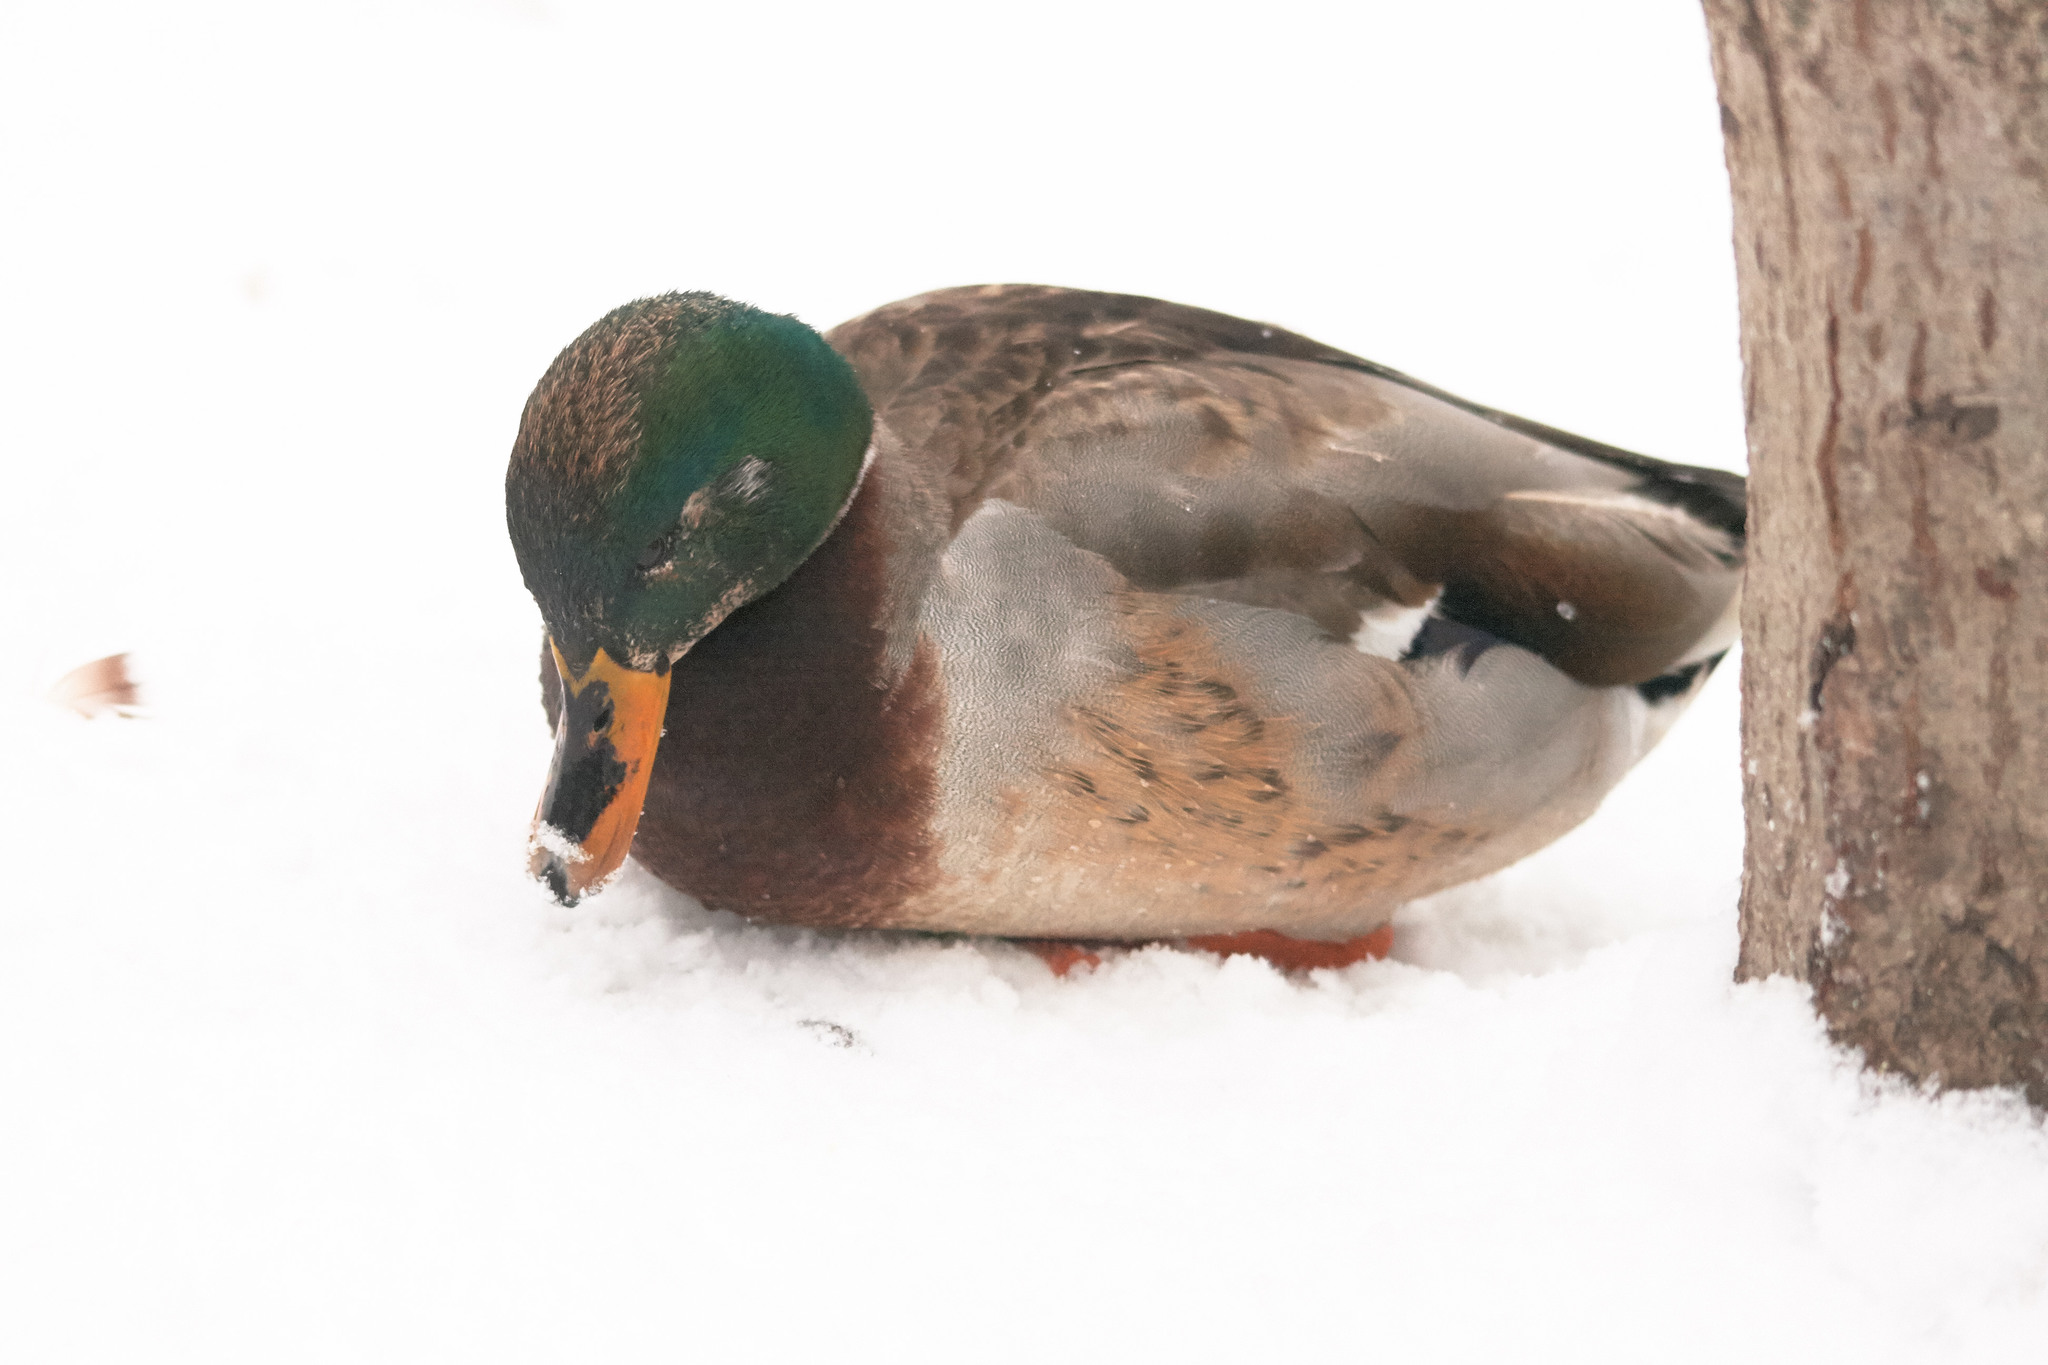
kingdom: Animalia
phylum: Chordata
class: Aves
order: Anseriformes
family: Anatidae
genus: Anas
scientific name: Anas platyrhynchos
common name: Mallard
